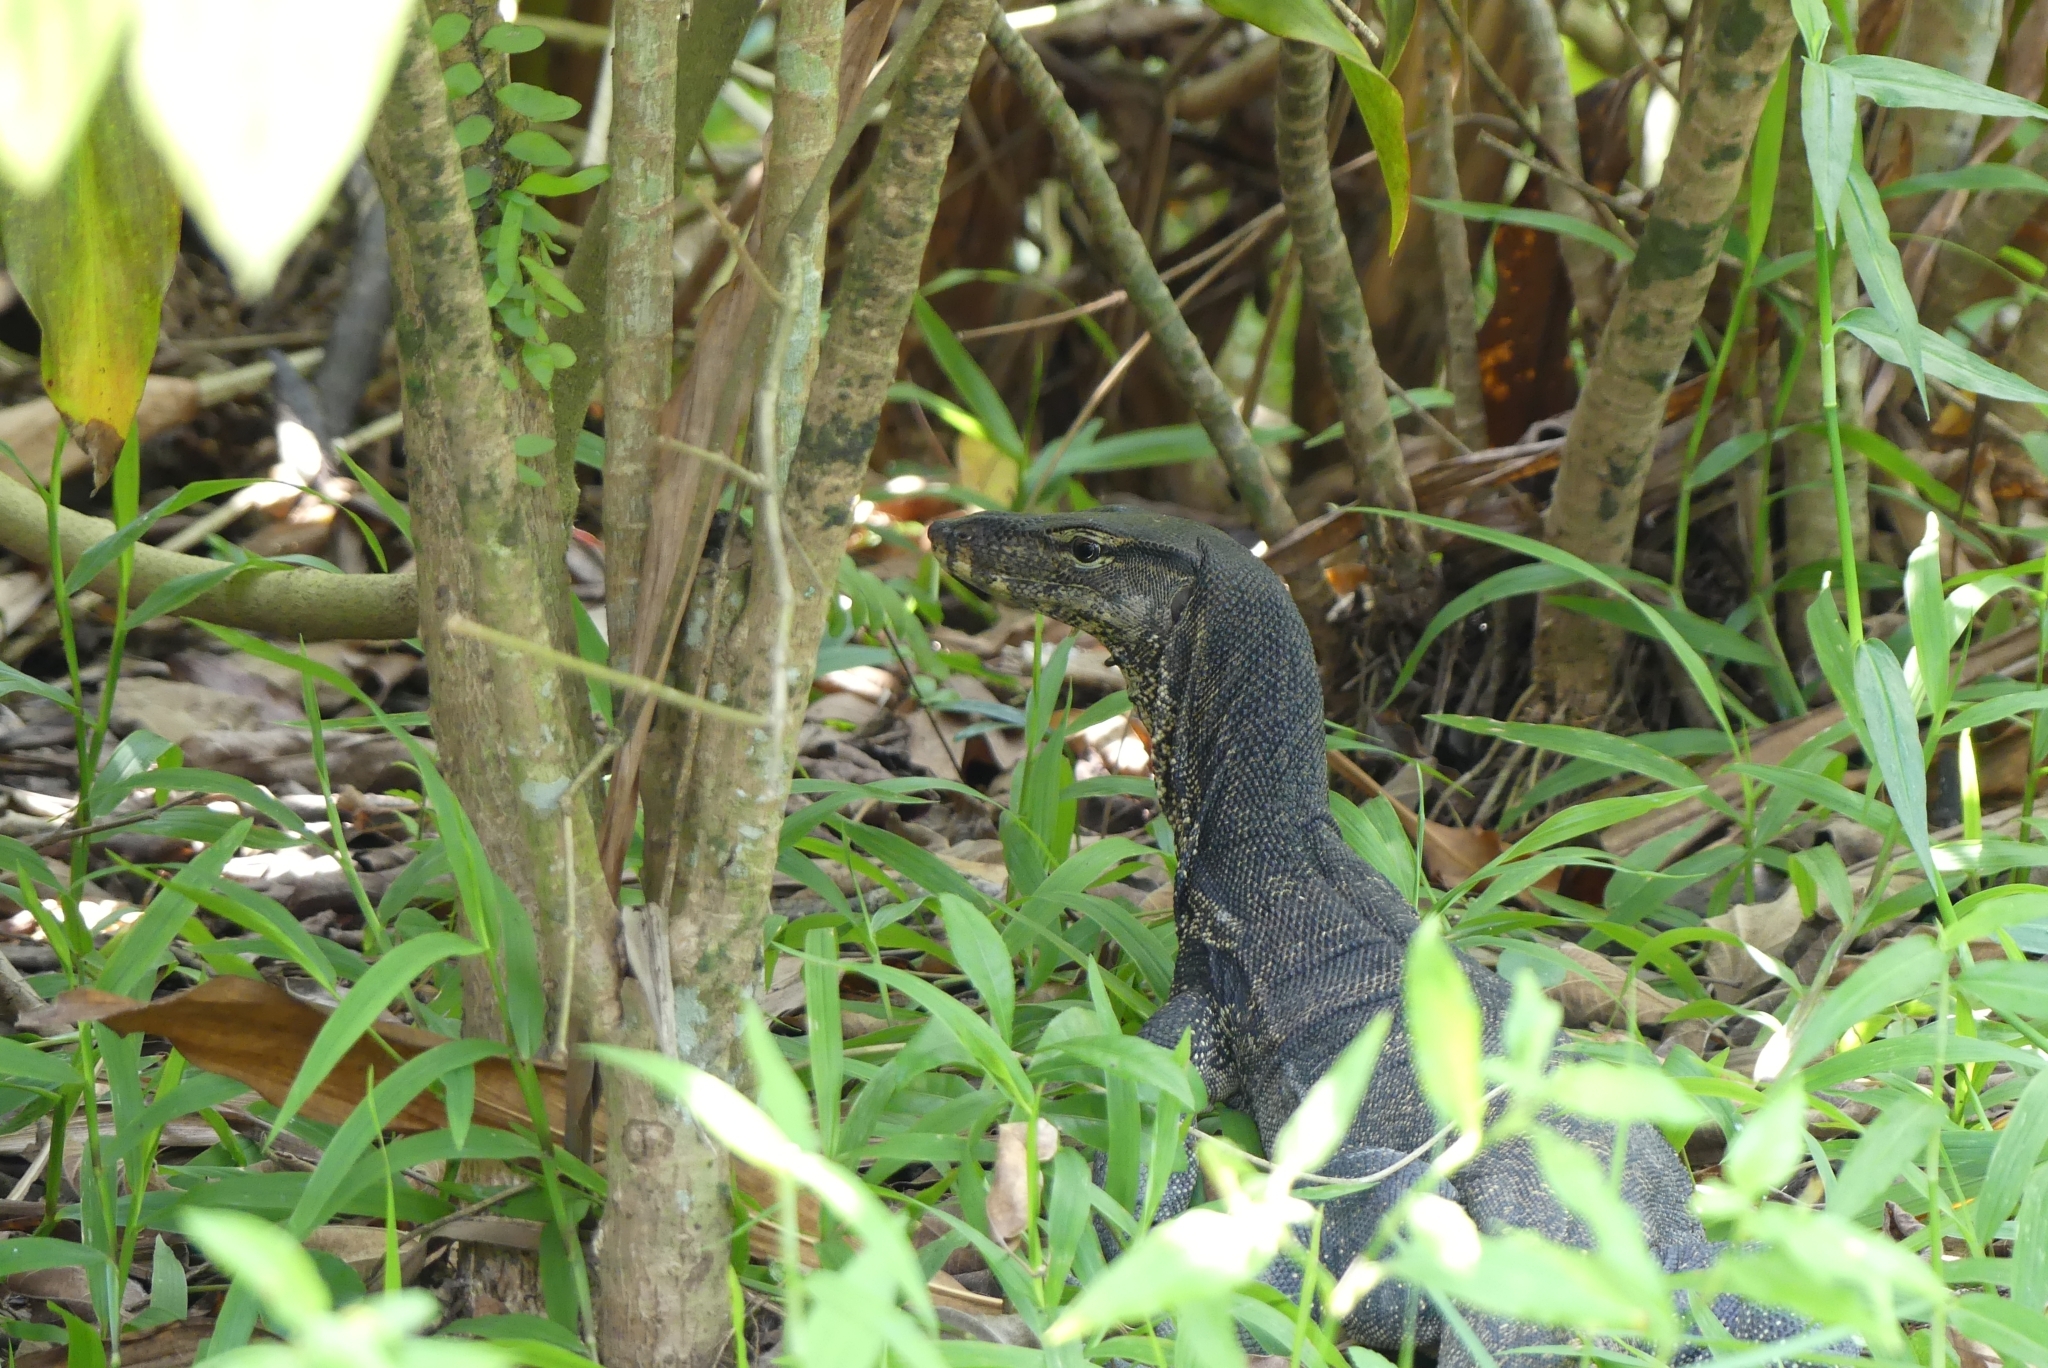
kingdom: Animalia
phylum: Chordata
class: Squamata
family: Varanidae
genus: Varanus
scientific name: Varanus salvator
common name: Common water monitor
